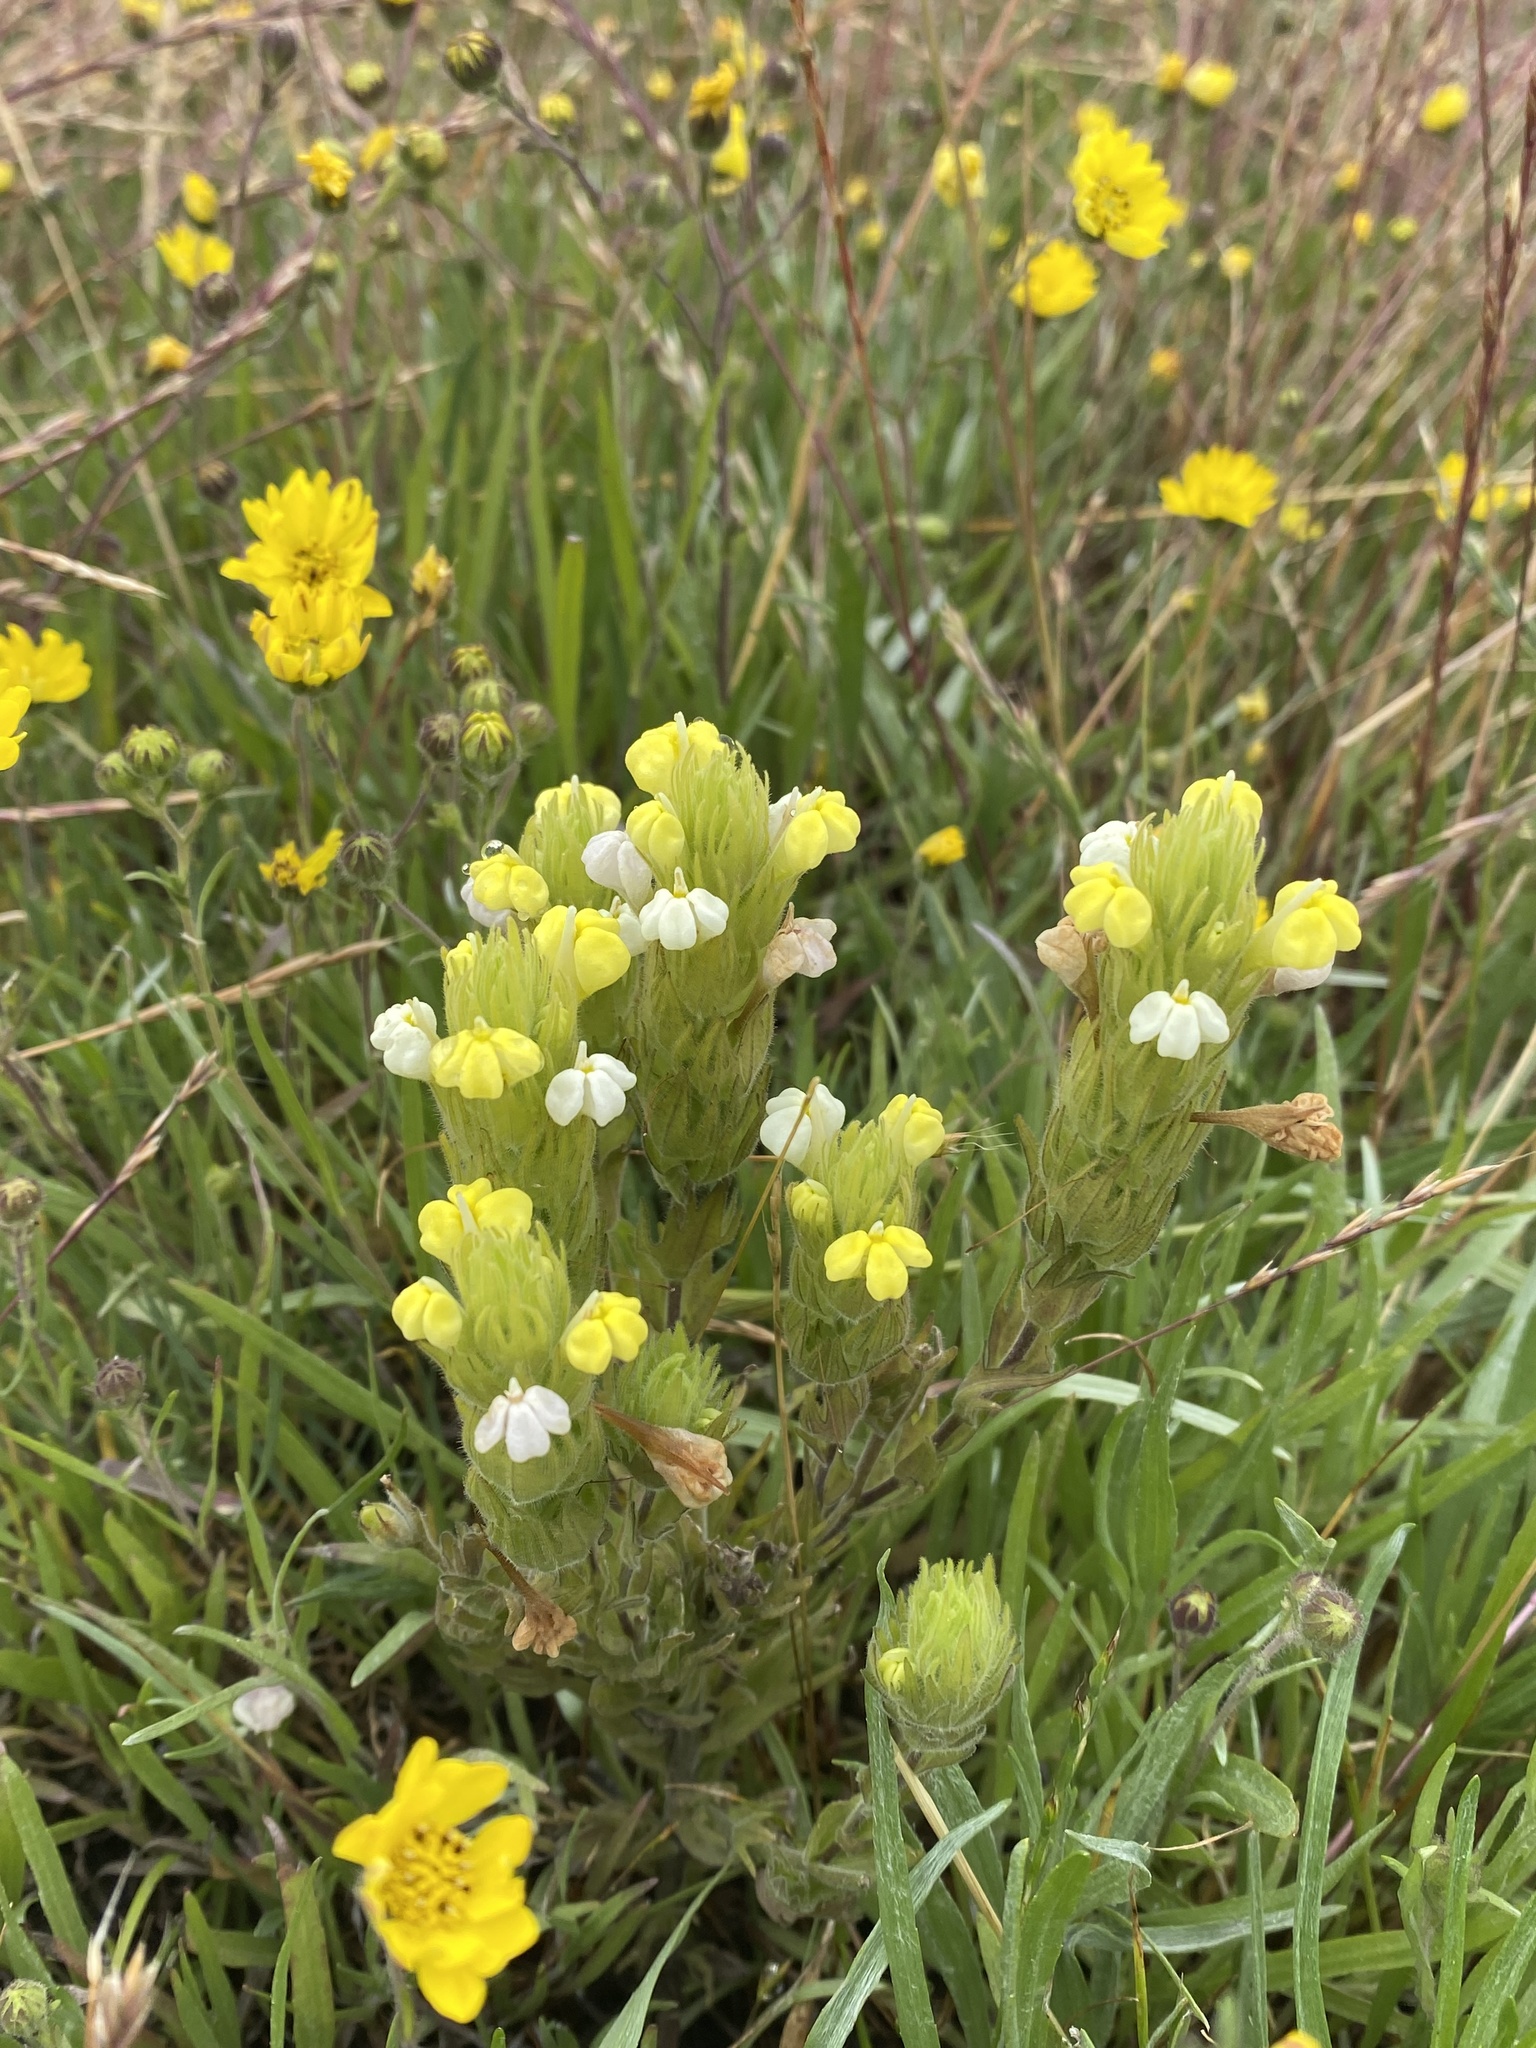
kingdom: Plantae
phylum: Tracheophyta
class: Magnoliopsida
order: Lamiales
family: Orobanchaceae
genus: Castilleja
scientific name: Castilleja rubicundula
